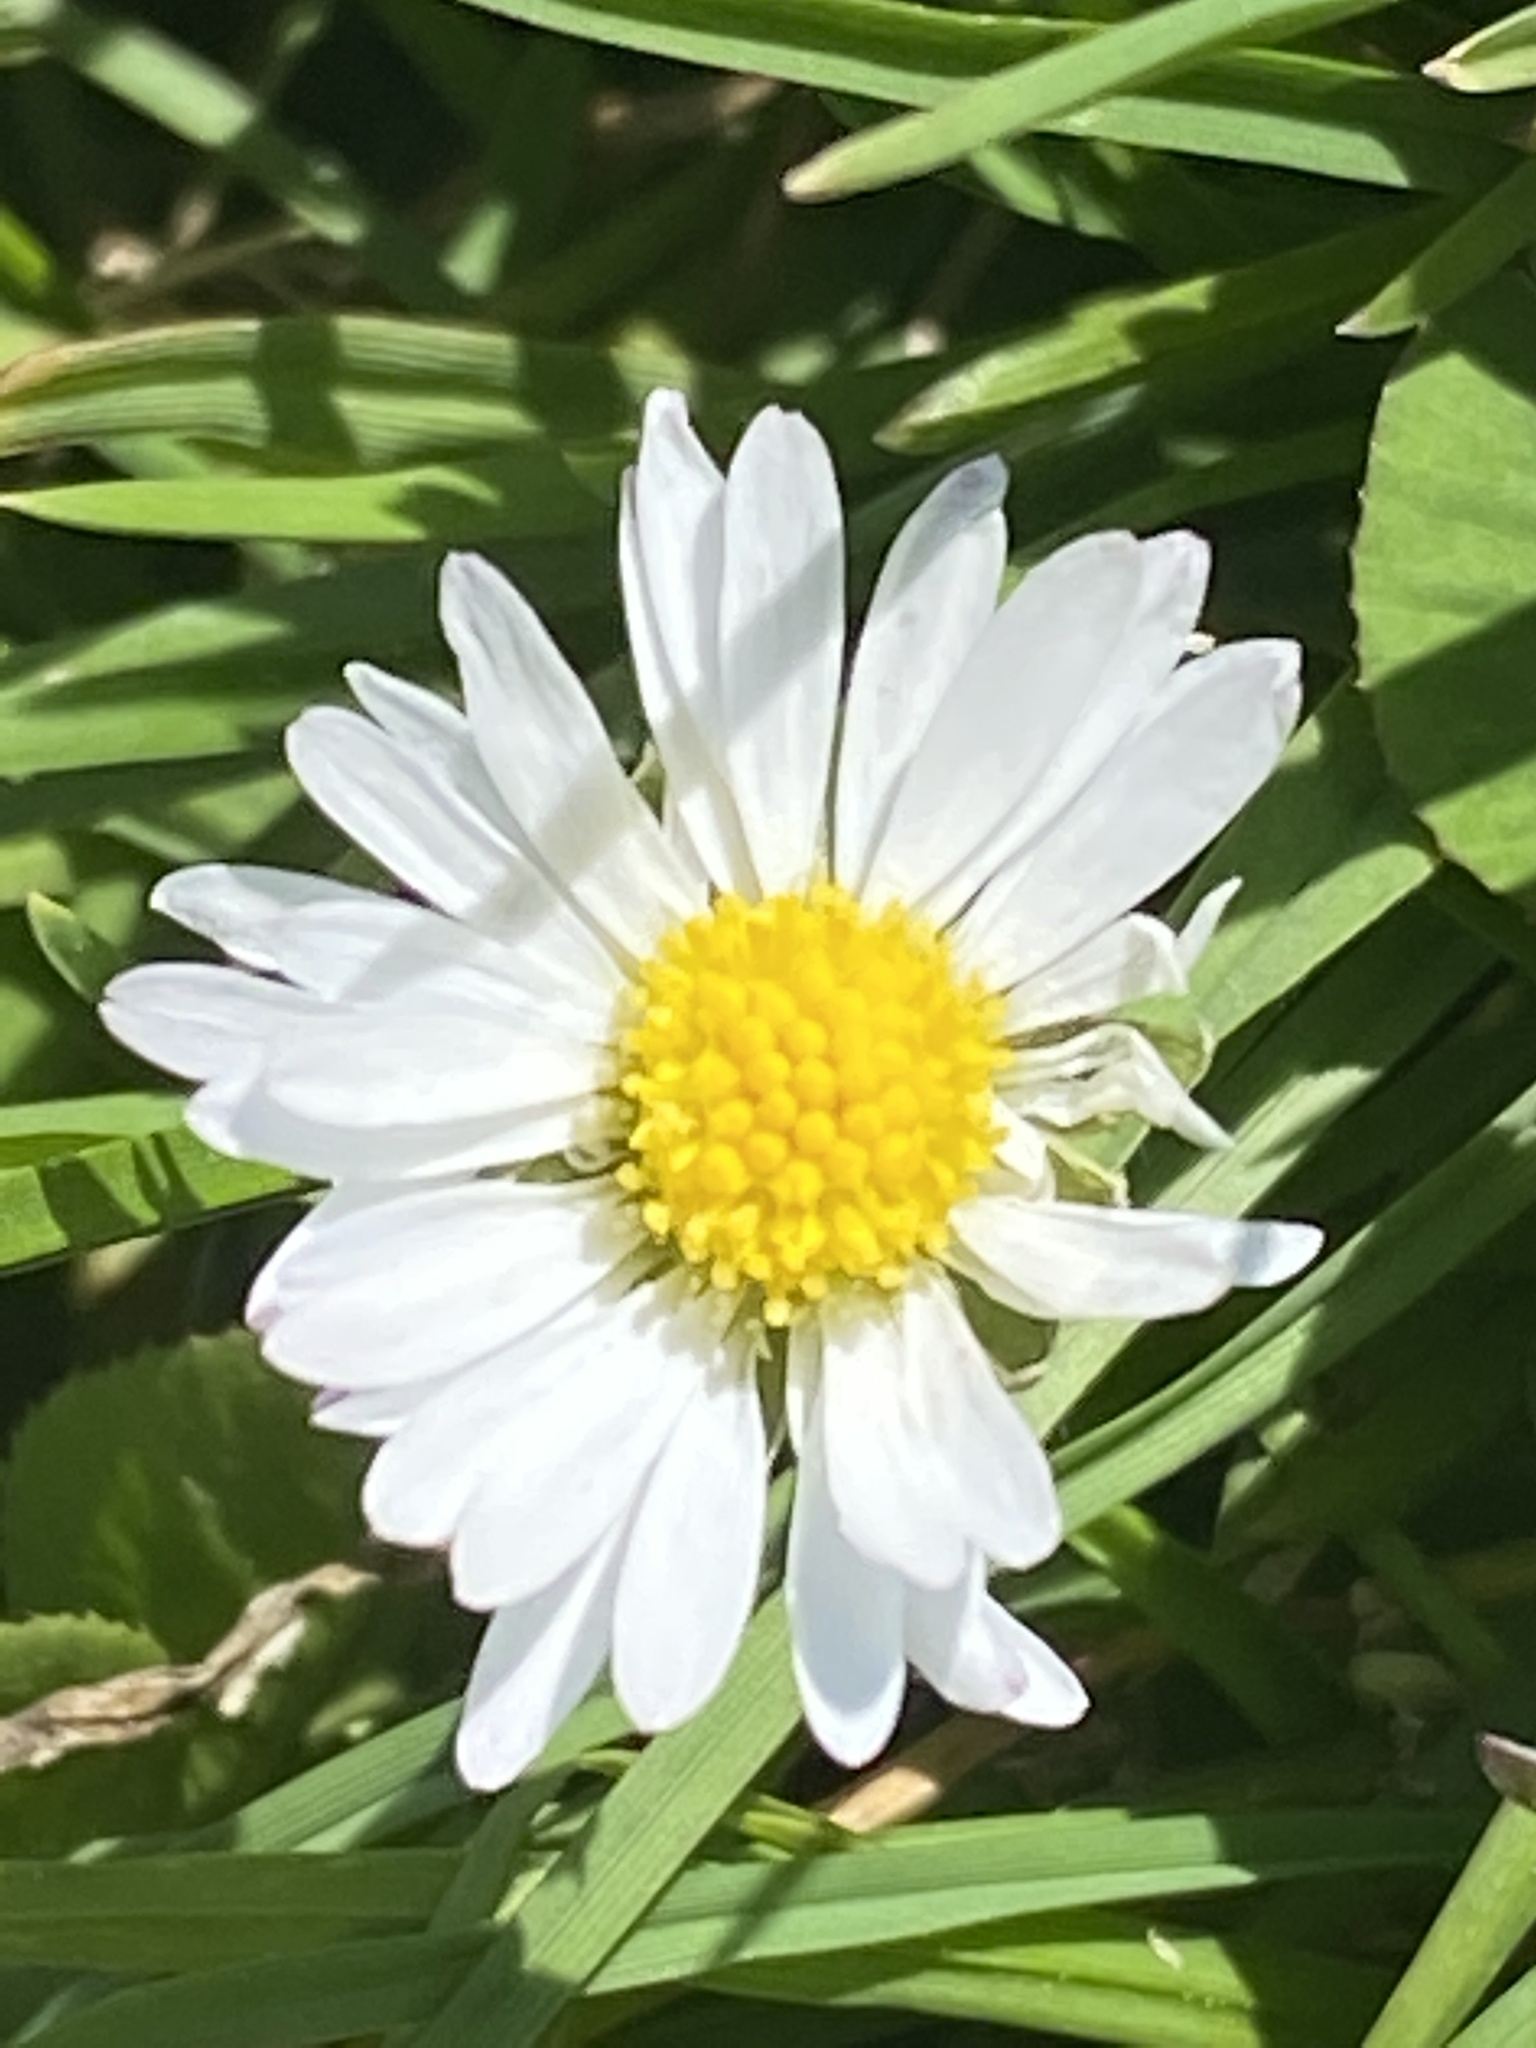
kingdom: Plantae
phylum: Tracheophyta
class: Magnoliopsida
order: Asterales
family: Asteraceae
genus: Bellis
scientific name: Bellis perennis
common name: Lawndaisy
